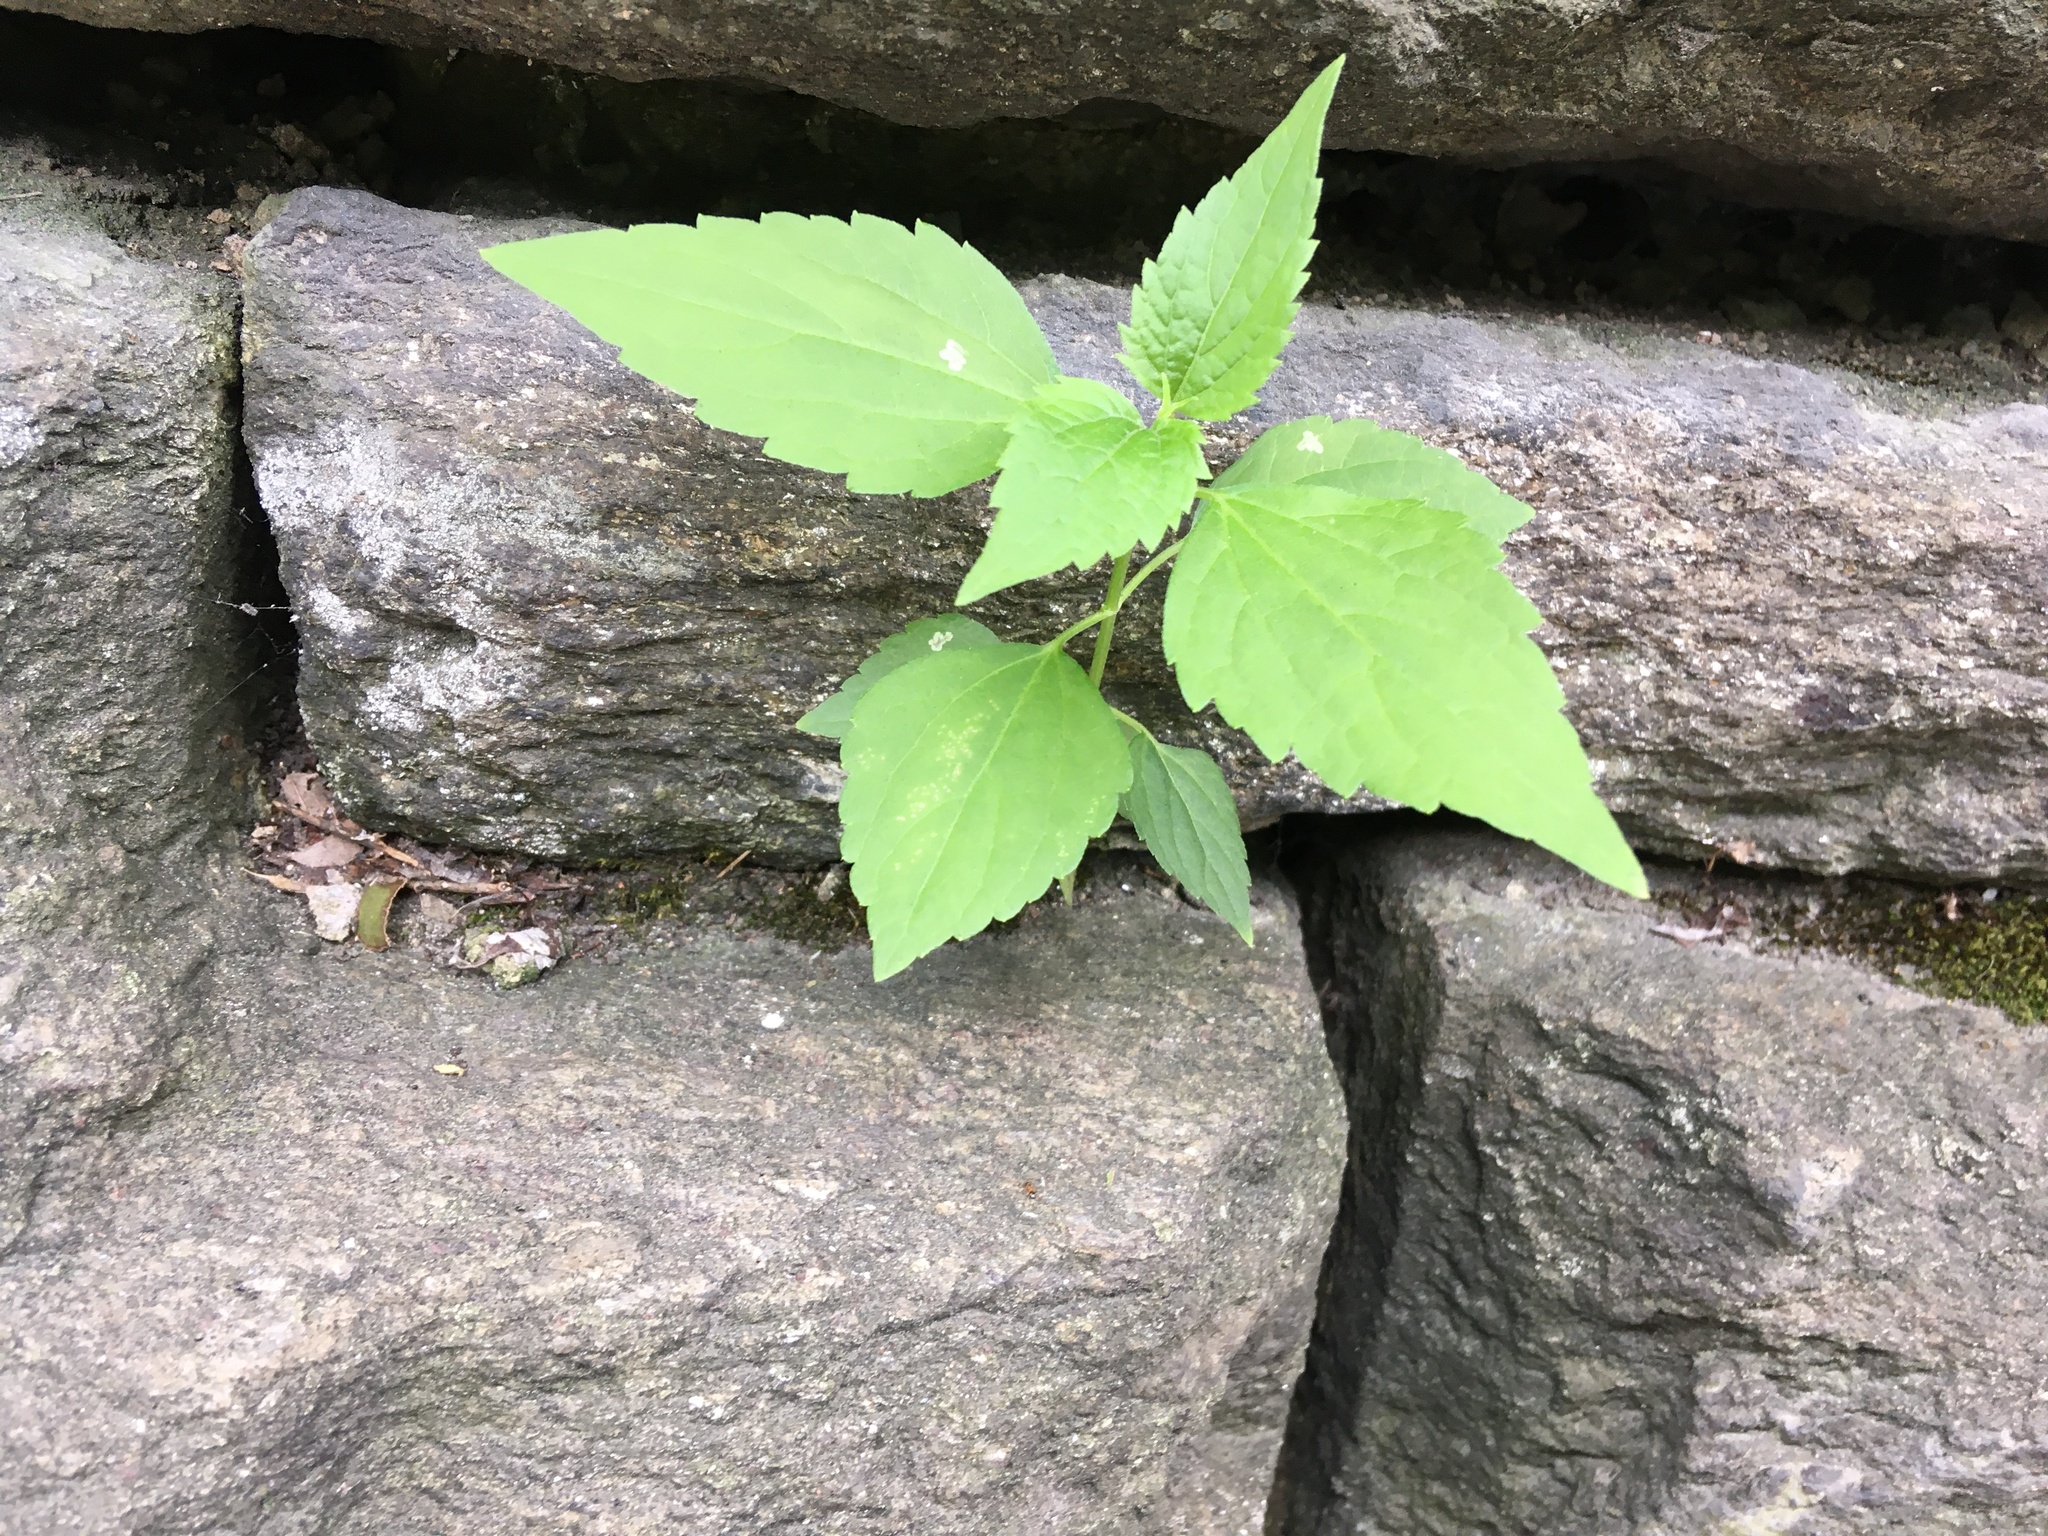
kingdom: Plantae
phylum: Tracheophyta
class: Magnoliopsida
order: Asterales
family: Asteraceae
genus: Ageratina
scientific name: Ageratina altissima
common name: White snakeroot
